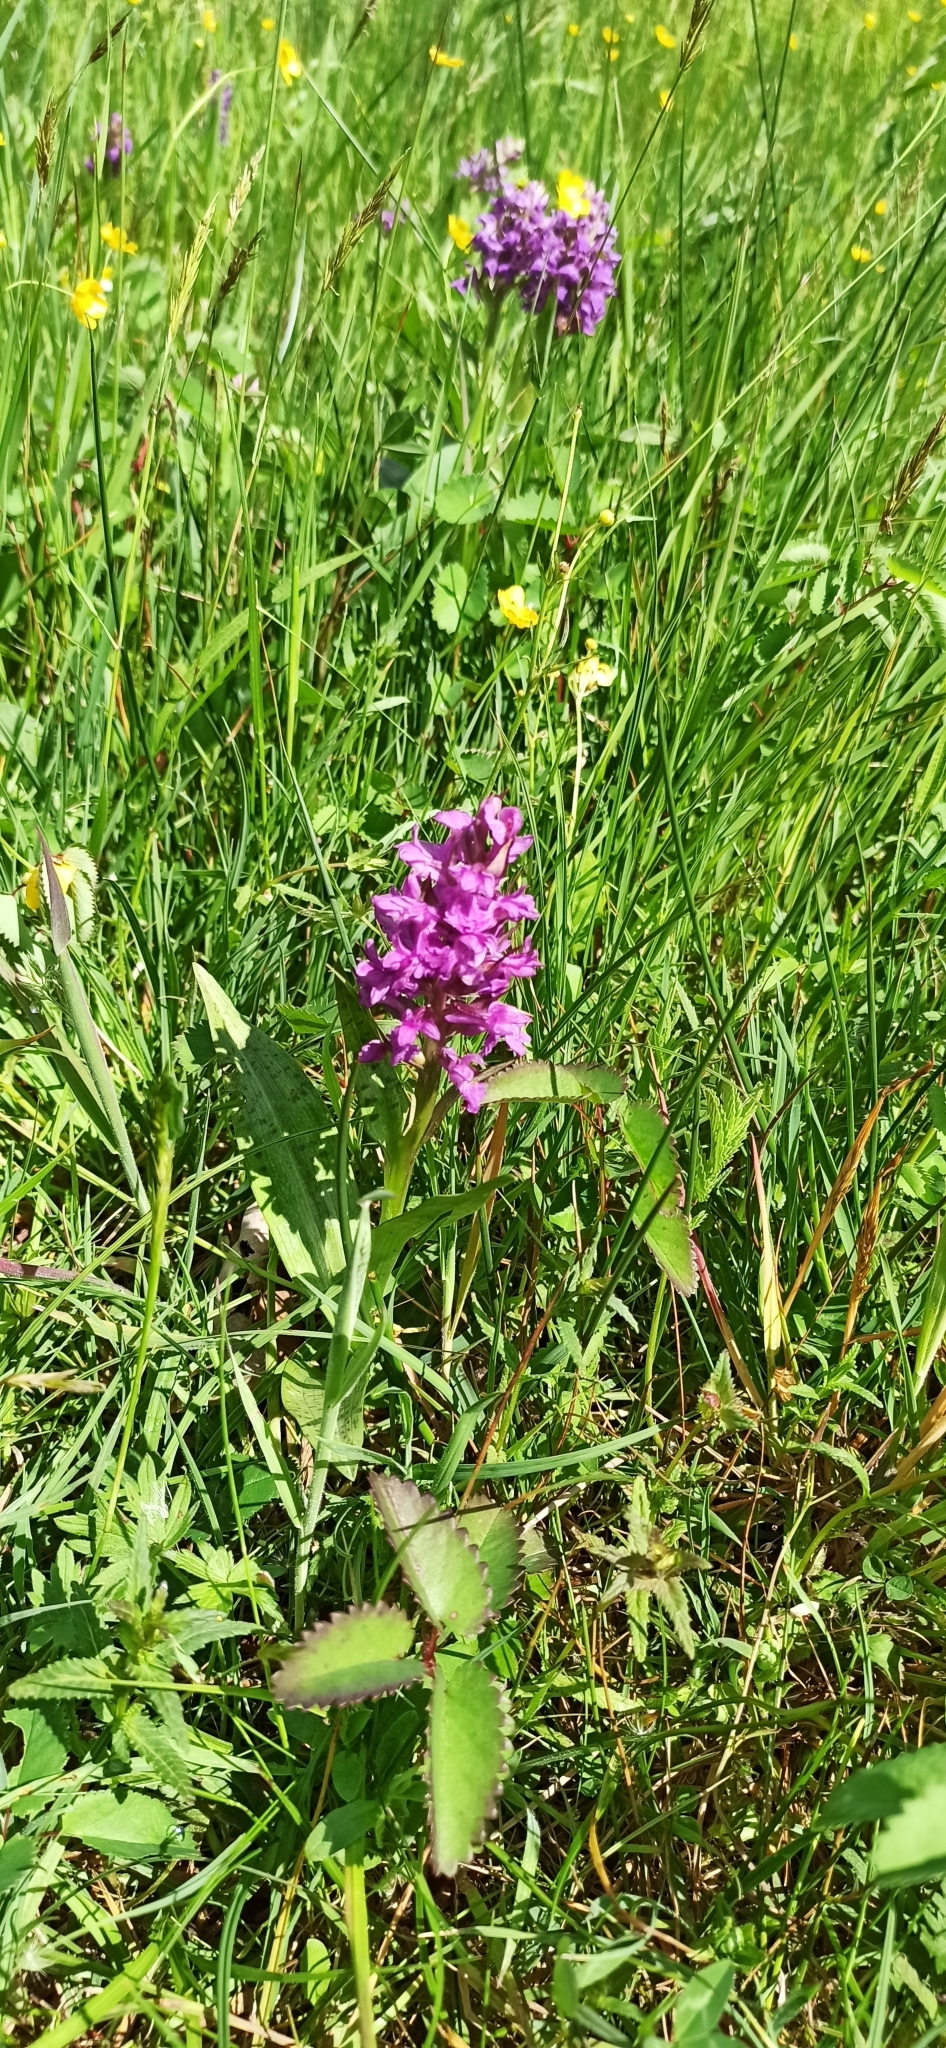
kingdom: Plantae
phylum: Tracheophyta
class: Liliopsida
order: Asparagales
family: Orchidaceae
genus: Dactylorhiza
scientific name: Dactylorhiza majalis
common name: Marsh orchid
